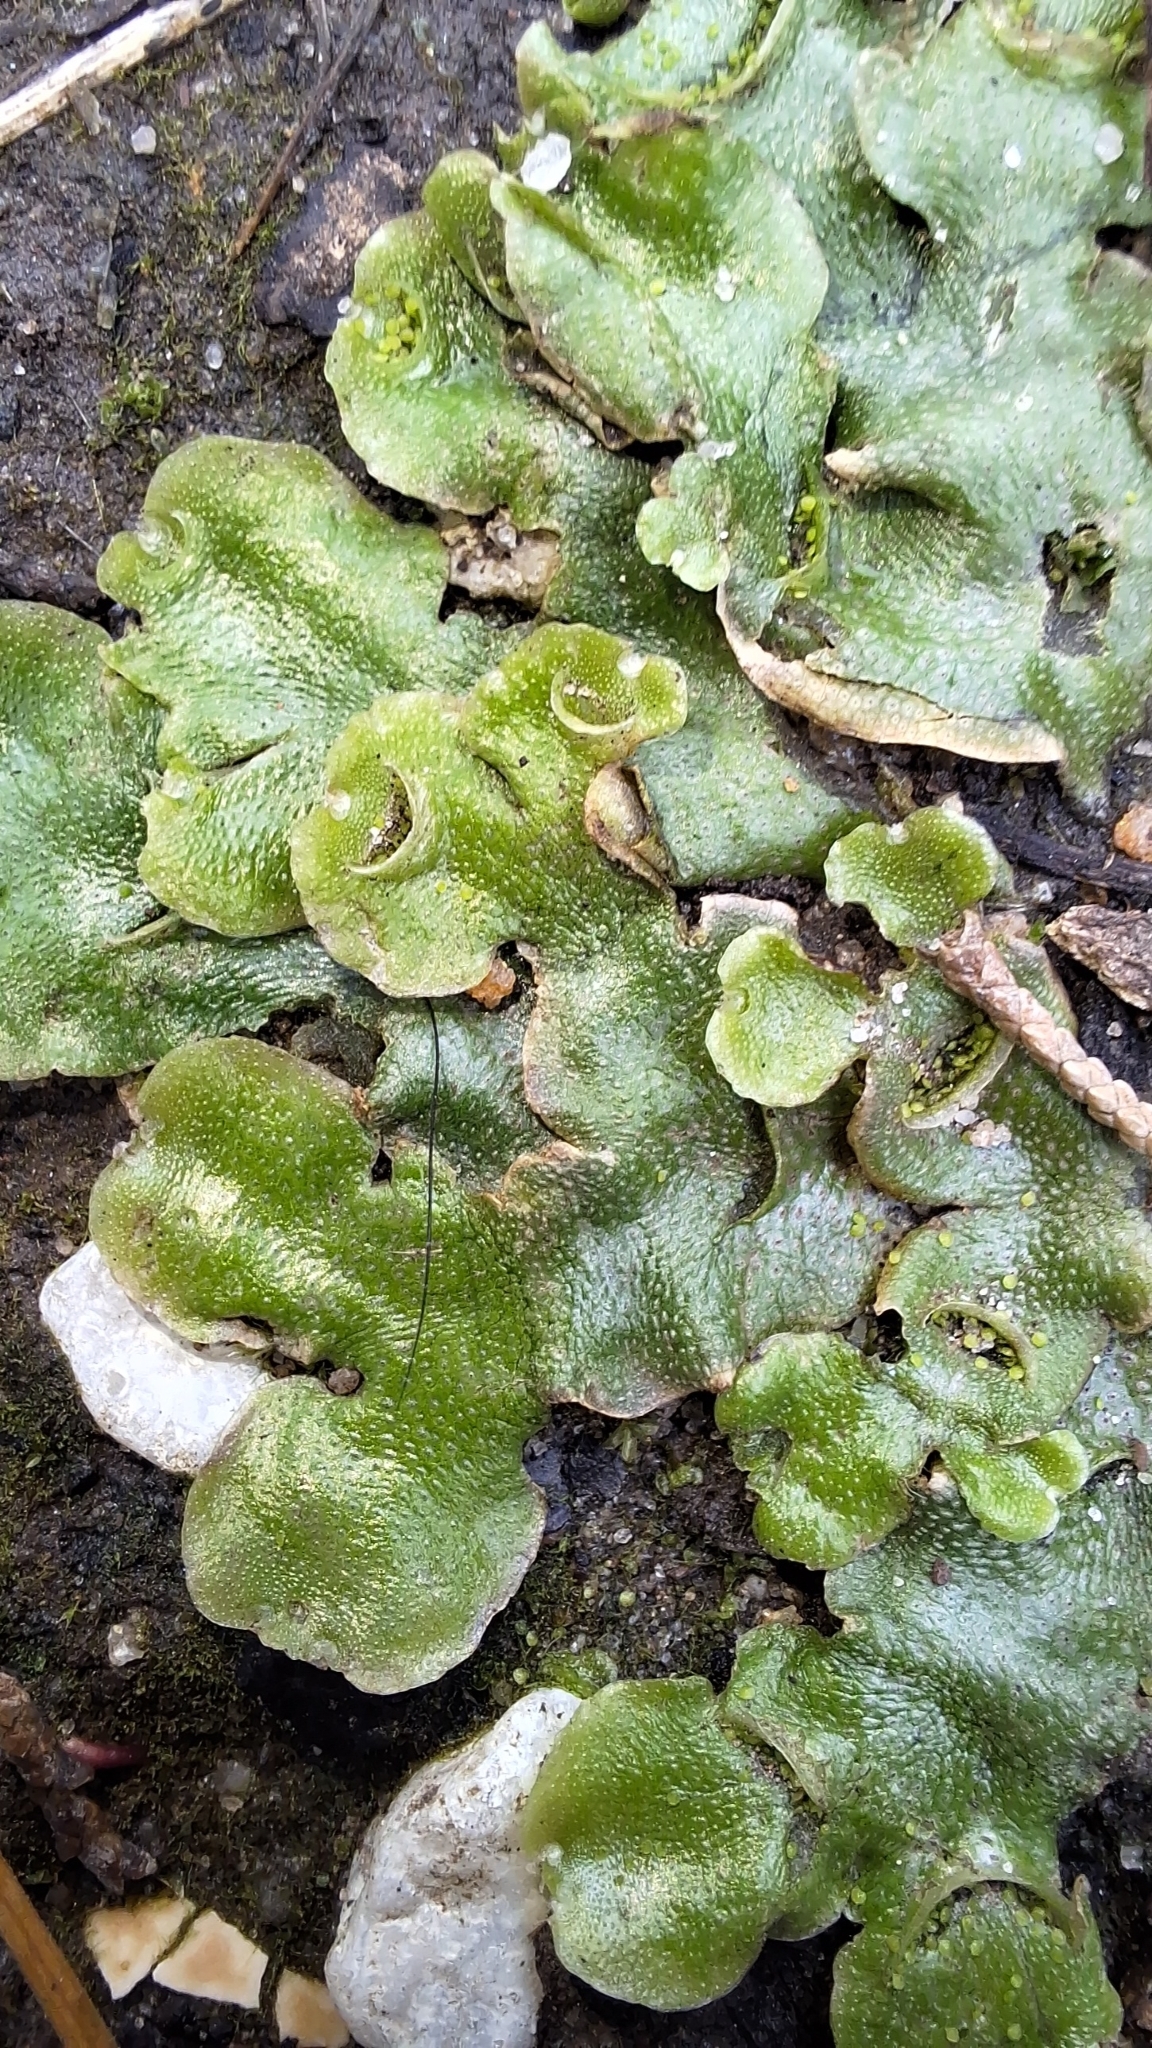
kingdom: Plantae
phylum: Marchantiophyta
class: Marchantiopsida
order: Lunulariales
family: Lunulariaceae
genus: Lunularia
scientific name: Lunularia cruciata
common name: Crescent-cup liverwort
